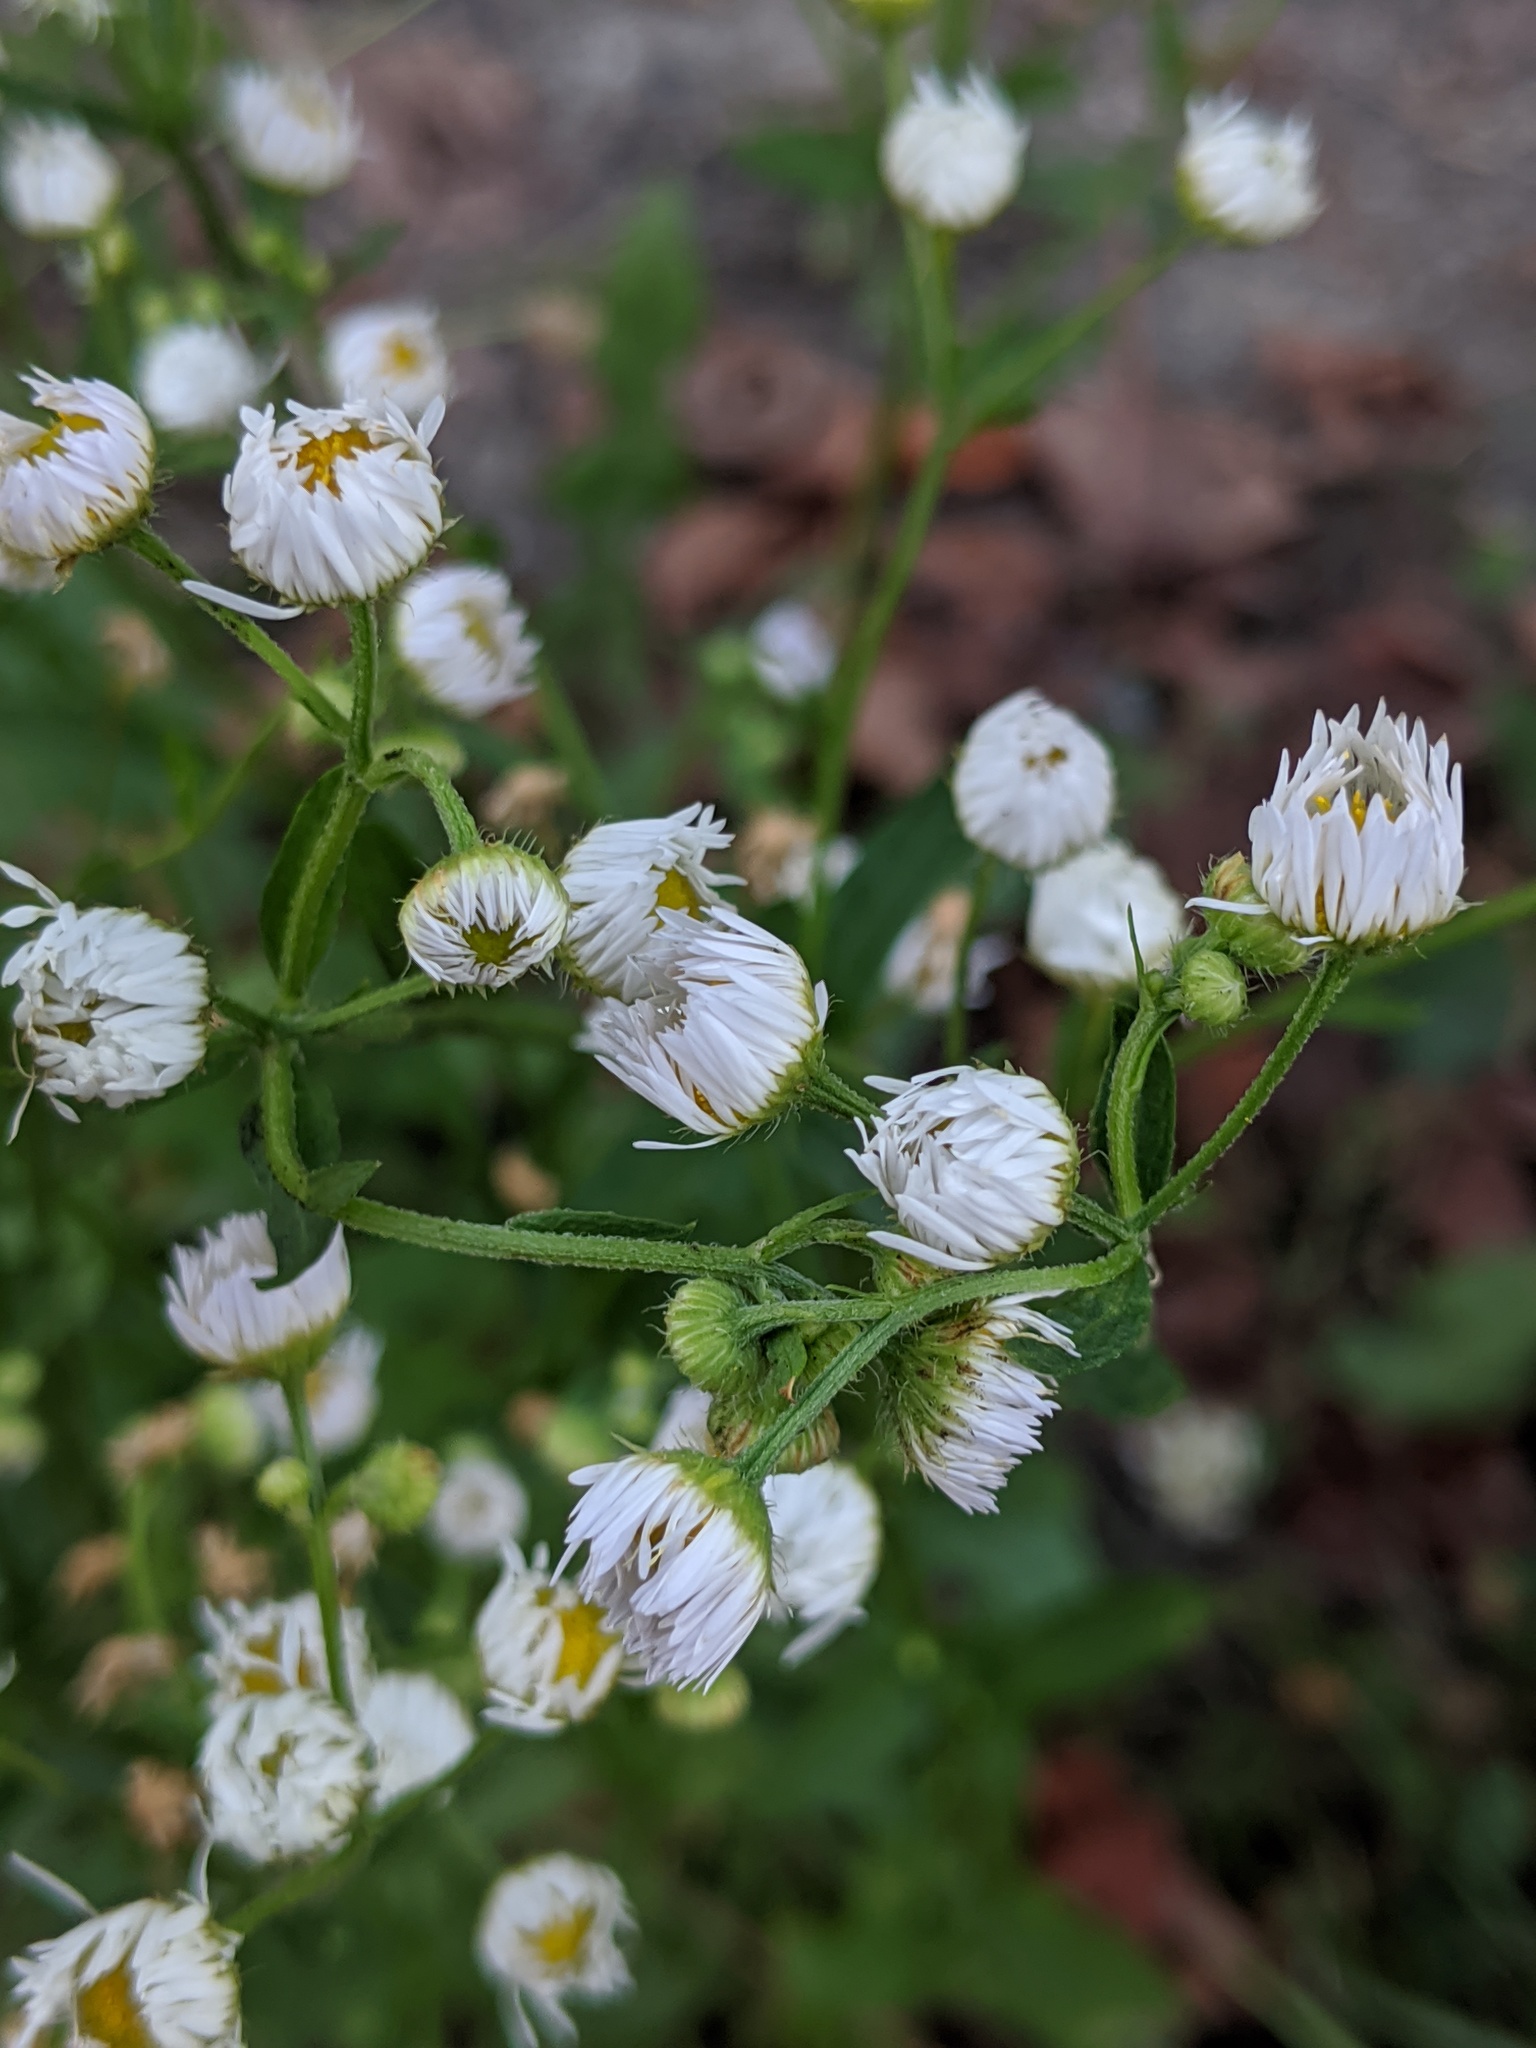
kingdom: Plantae
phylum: Tracheophyta
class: Magnoliopsida
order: Asterales
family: Asteraceae
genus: Erigeron
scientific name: Erigeron strigosus
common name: Common eastern fleabane
